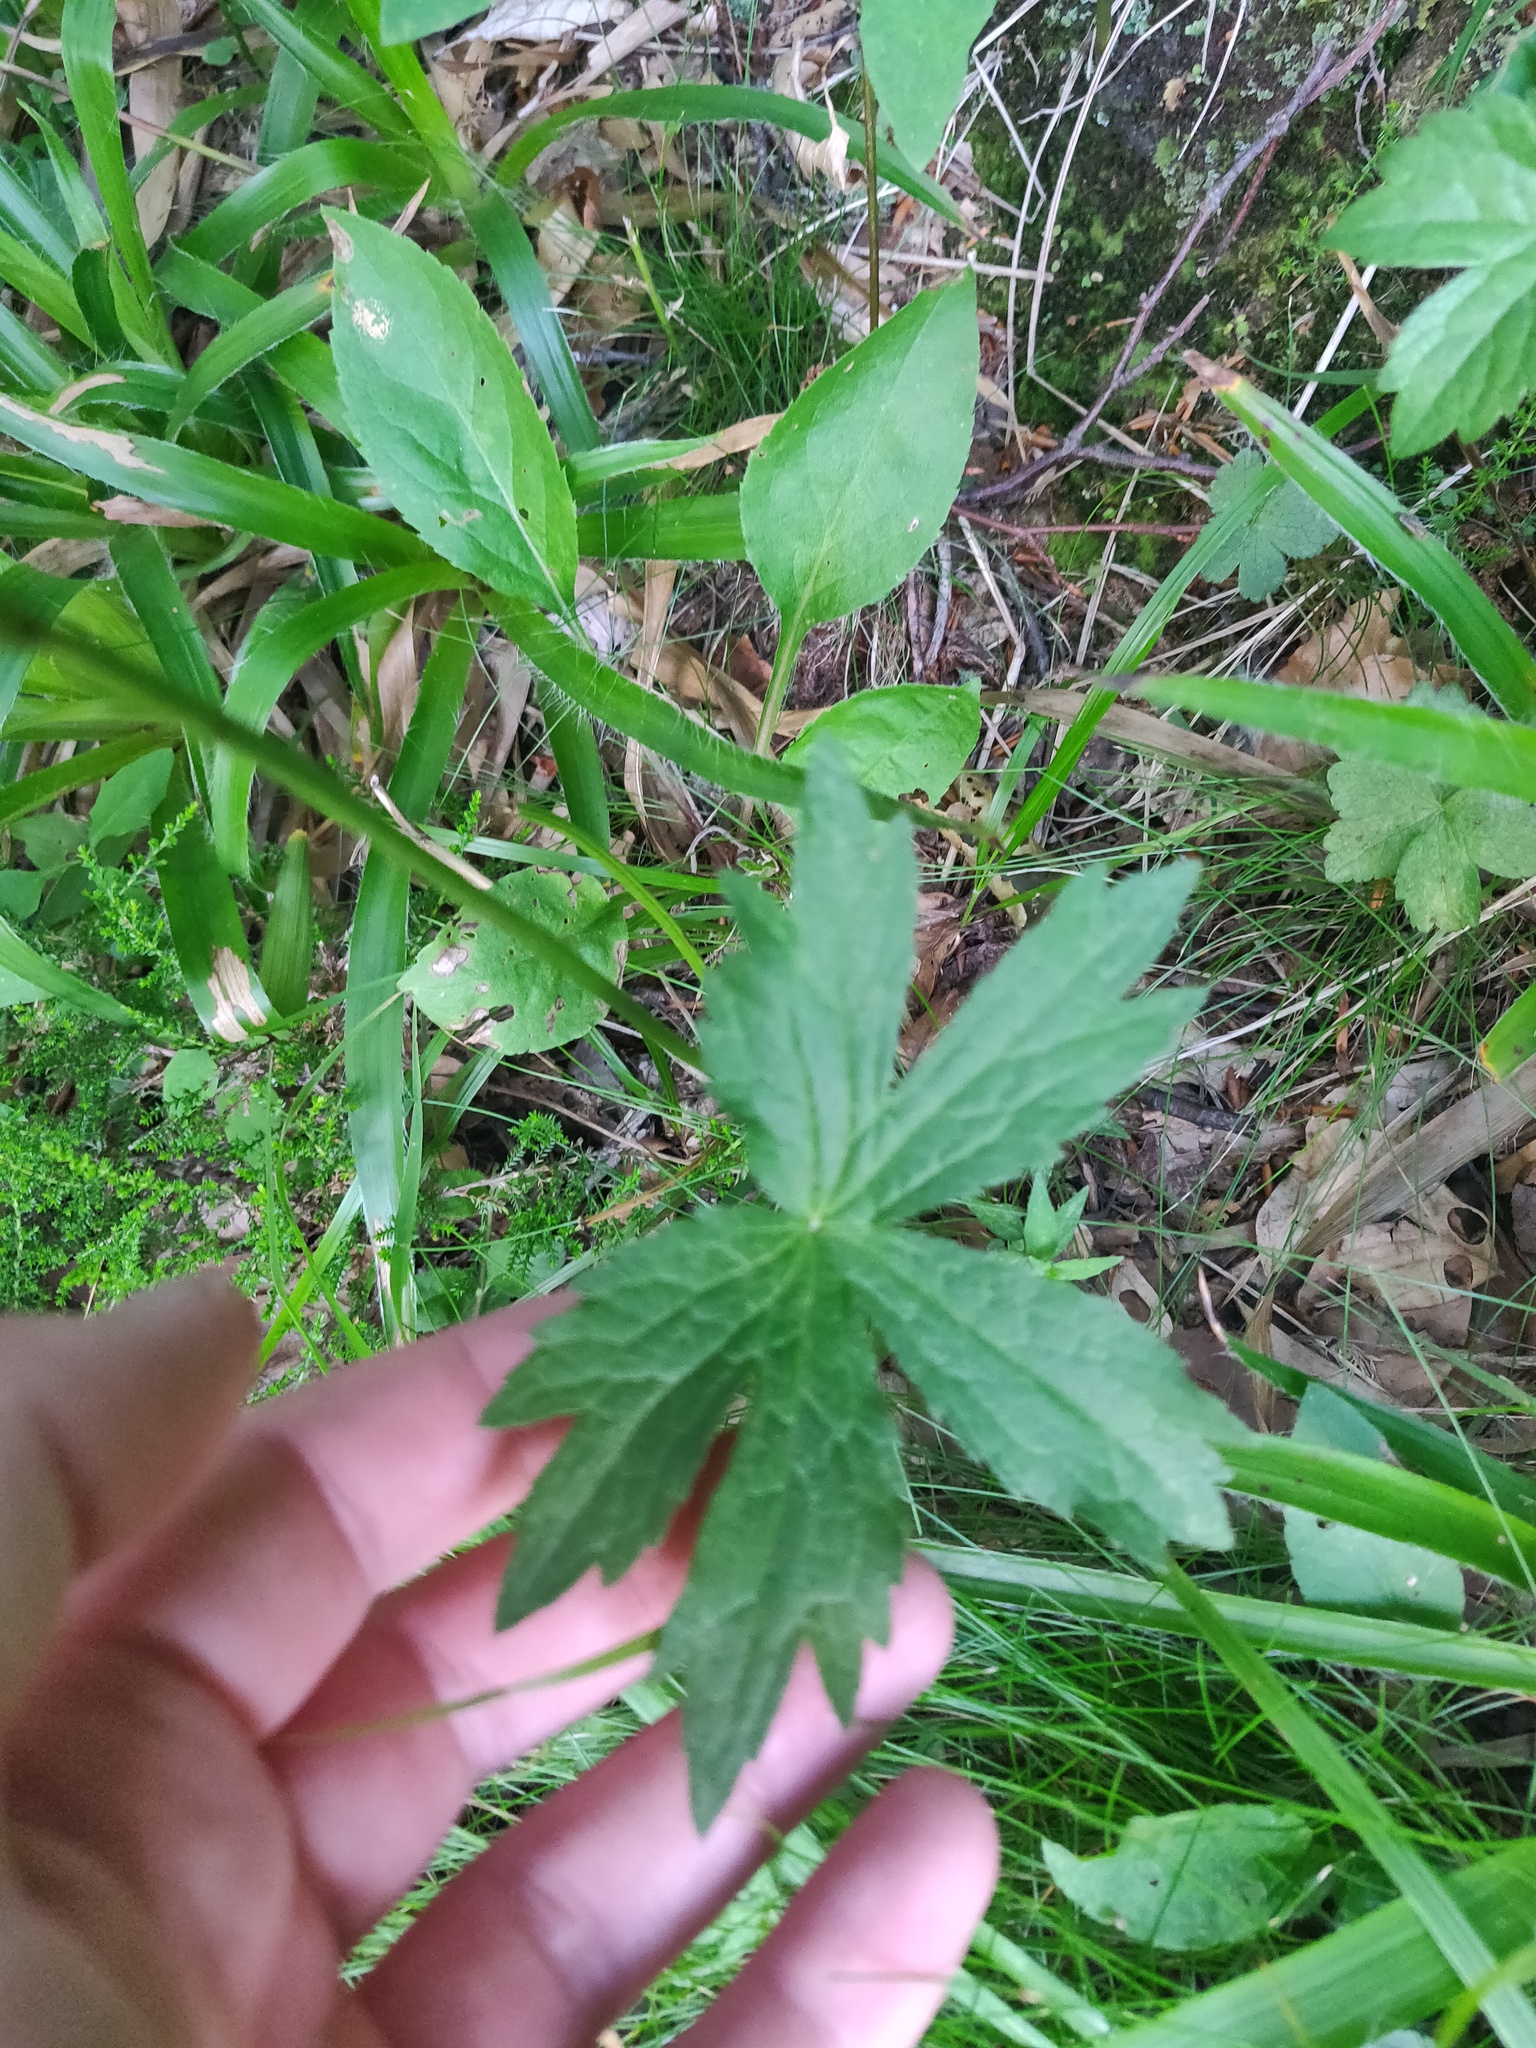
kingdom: Plantae
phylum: Tracheophyta
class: Magnoliopsida
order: Apiales
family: Apiaceae
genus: Astrantia
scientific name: Astrantia major
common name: Greater masterwort
